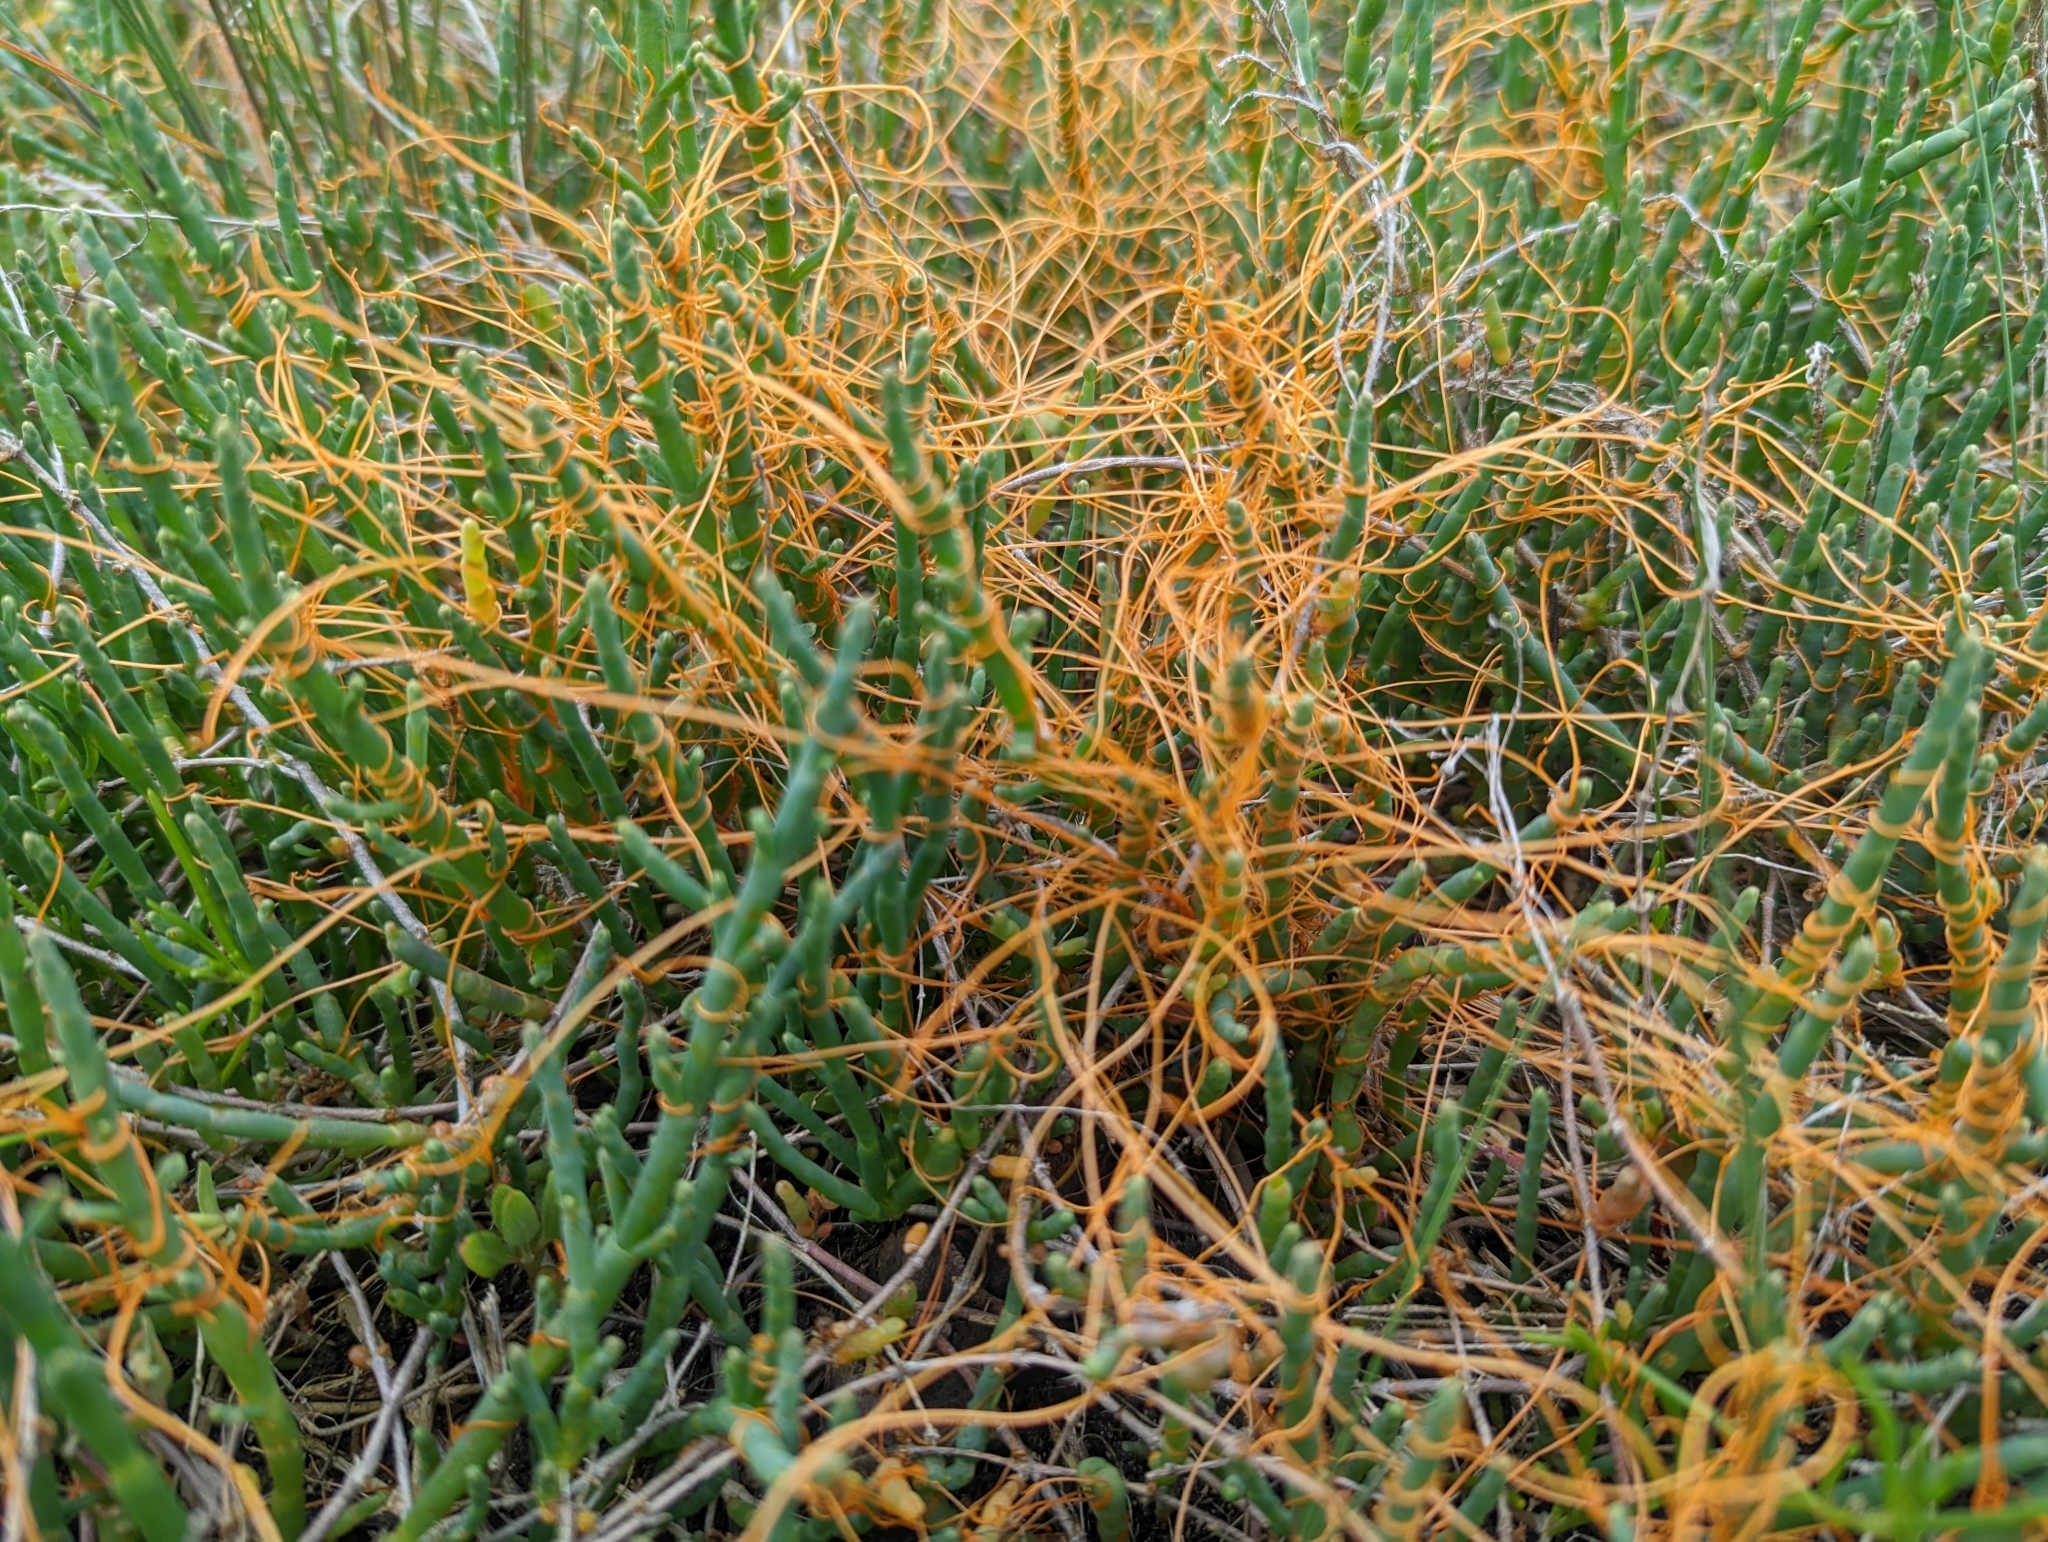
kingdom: Plantae
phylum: Tracheophyta
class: Magnoliopsida
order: Solanales
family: Convolvulaceae
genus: Cuscuta
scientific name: Cuscuta pacifica
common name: Large saltmarsh dodder
